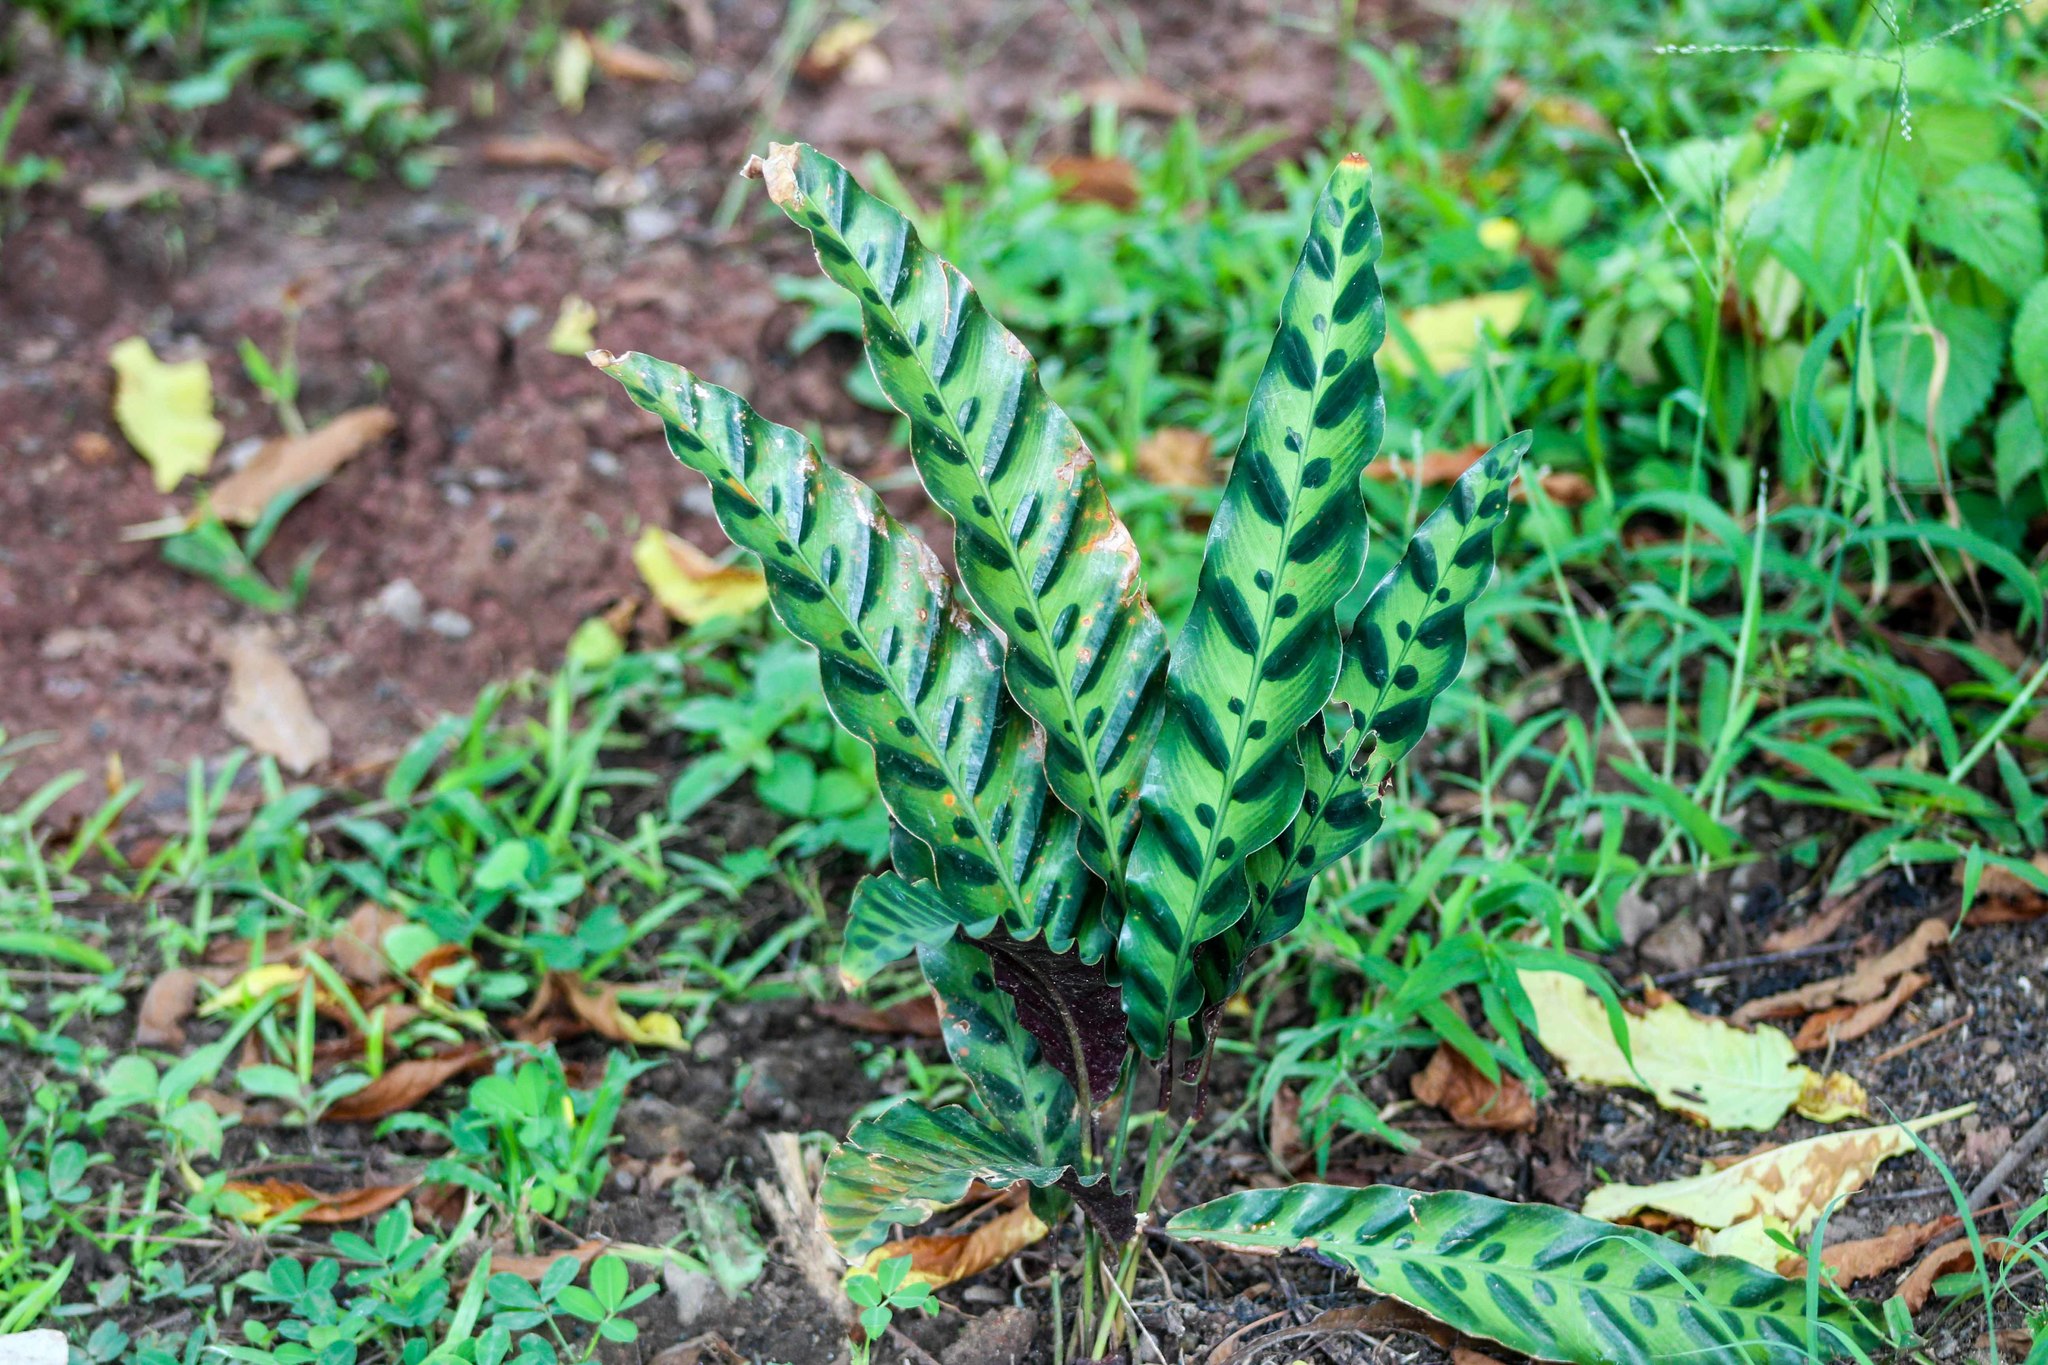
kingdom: Plantae
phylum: Tracheophyta
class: Liliopsida
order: Zingiberales
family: Marantaceae
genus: Goeppertia
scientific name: Goeppertia insignis
